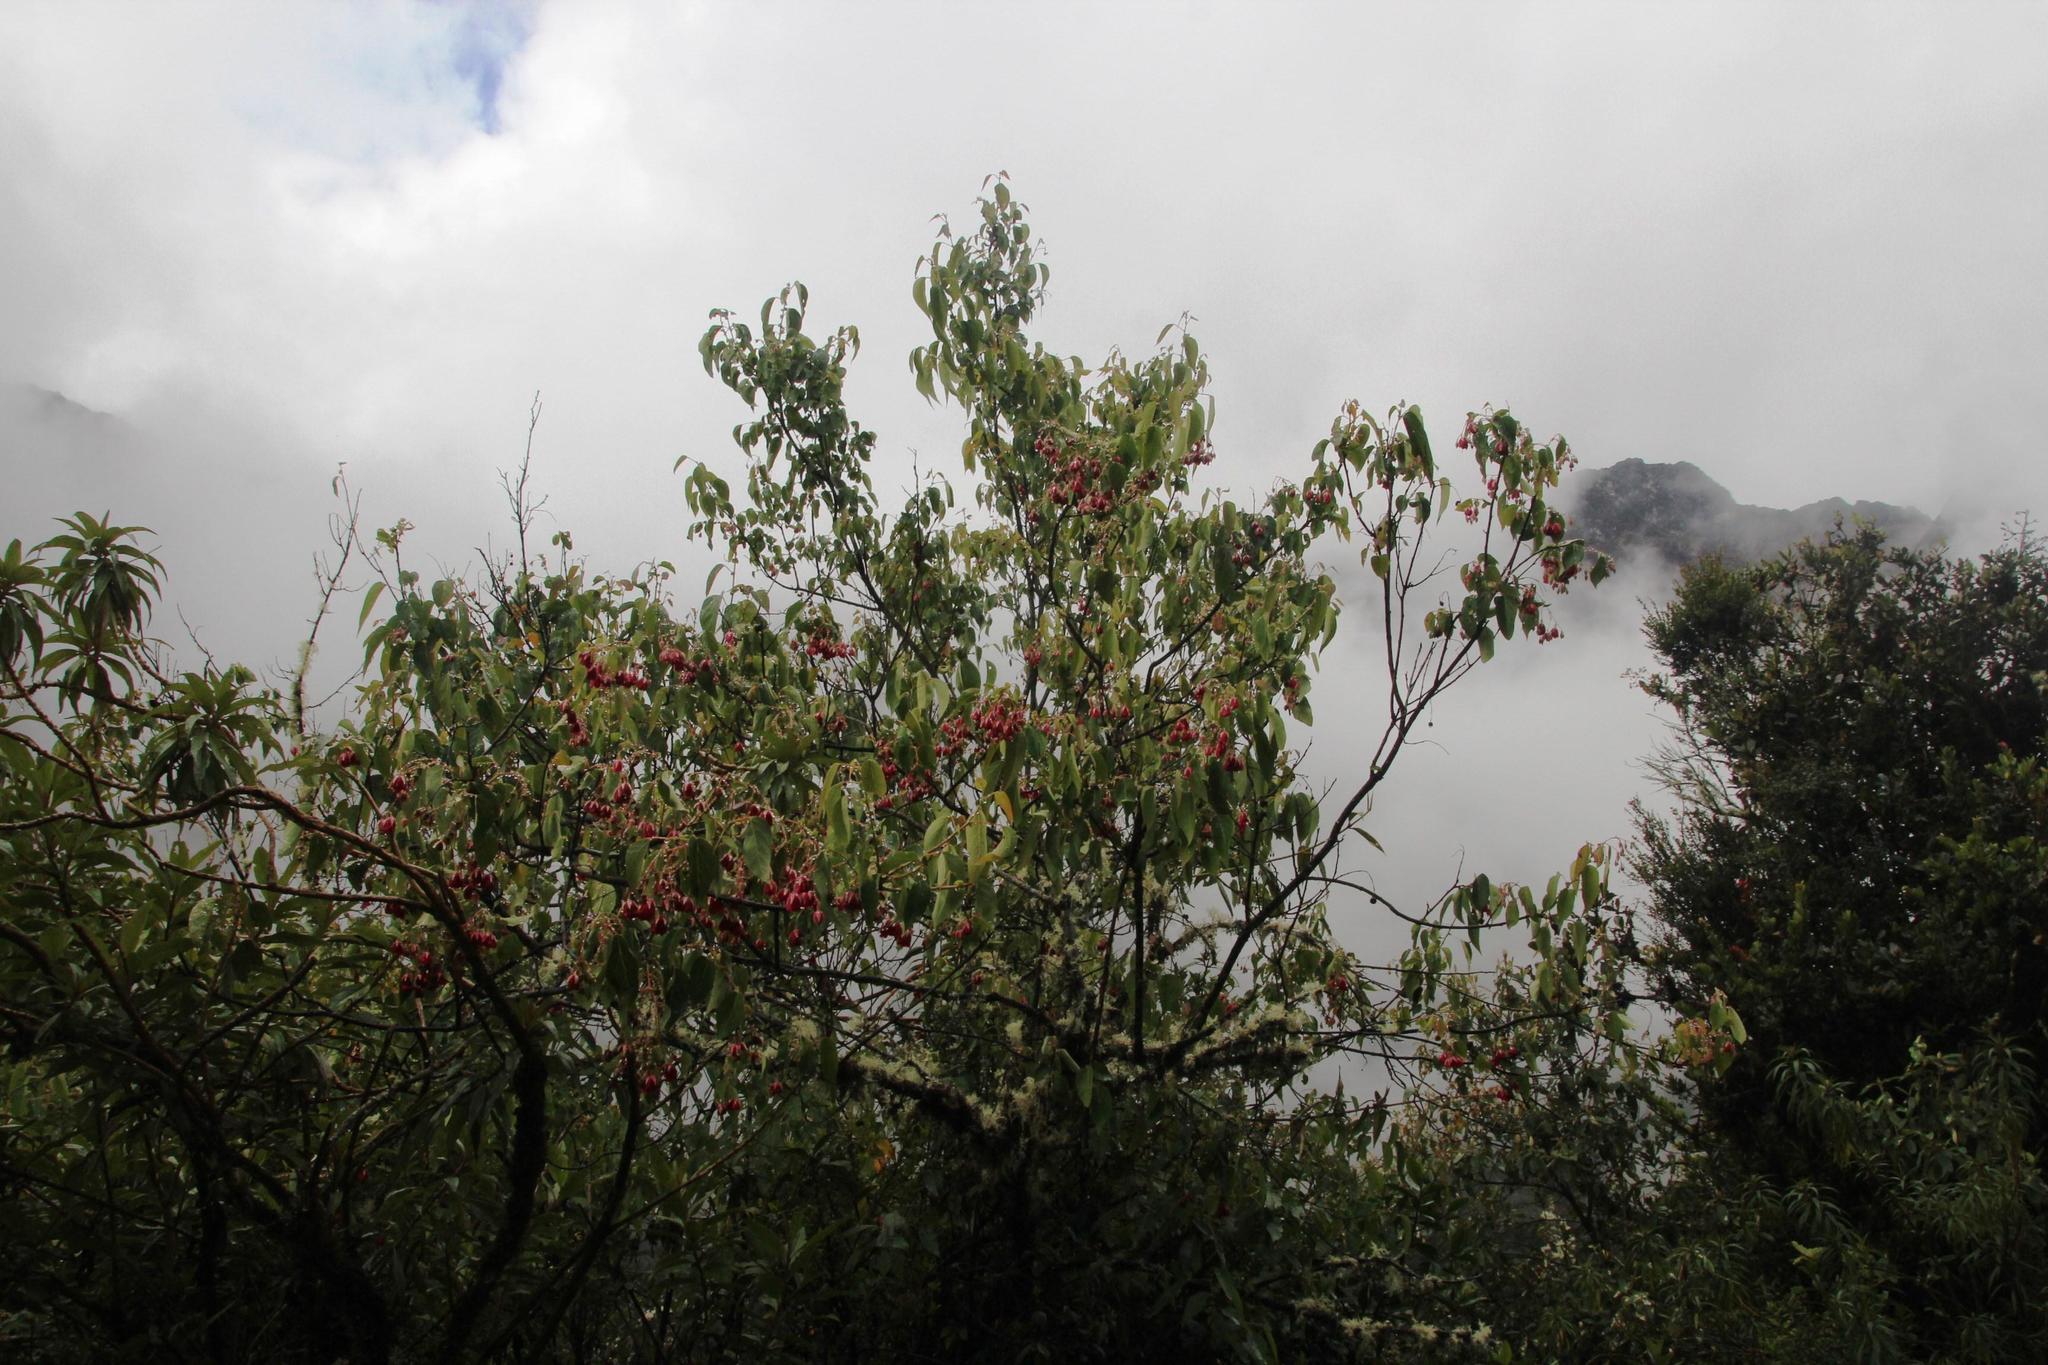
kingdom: Plantae
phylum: Tracheophyta
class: Magnoliopsida
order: Oxalidales
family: Elaeocarpaceae
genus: Vallea
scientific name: Vallea stipularis
